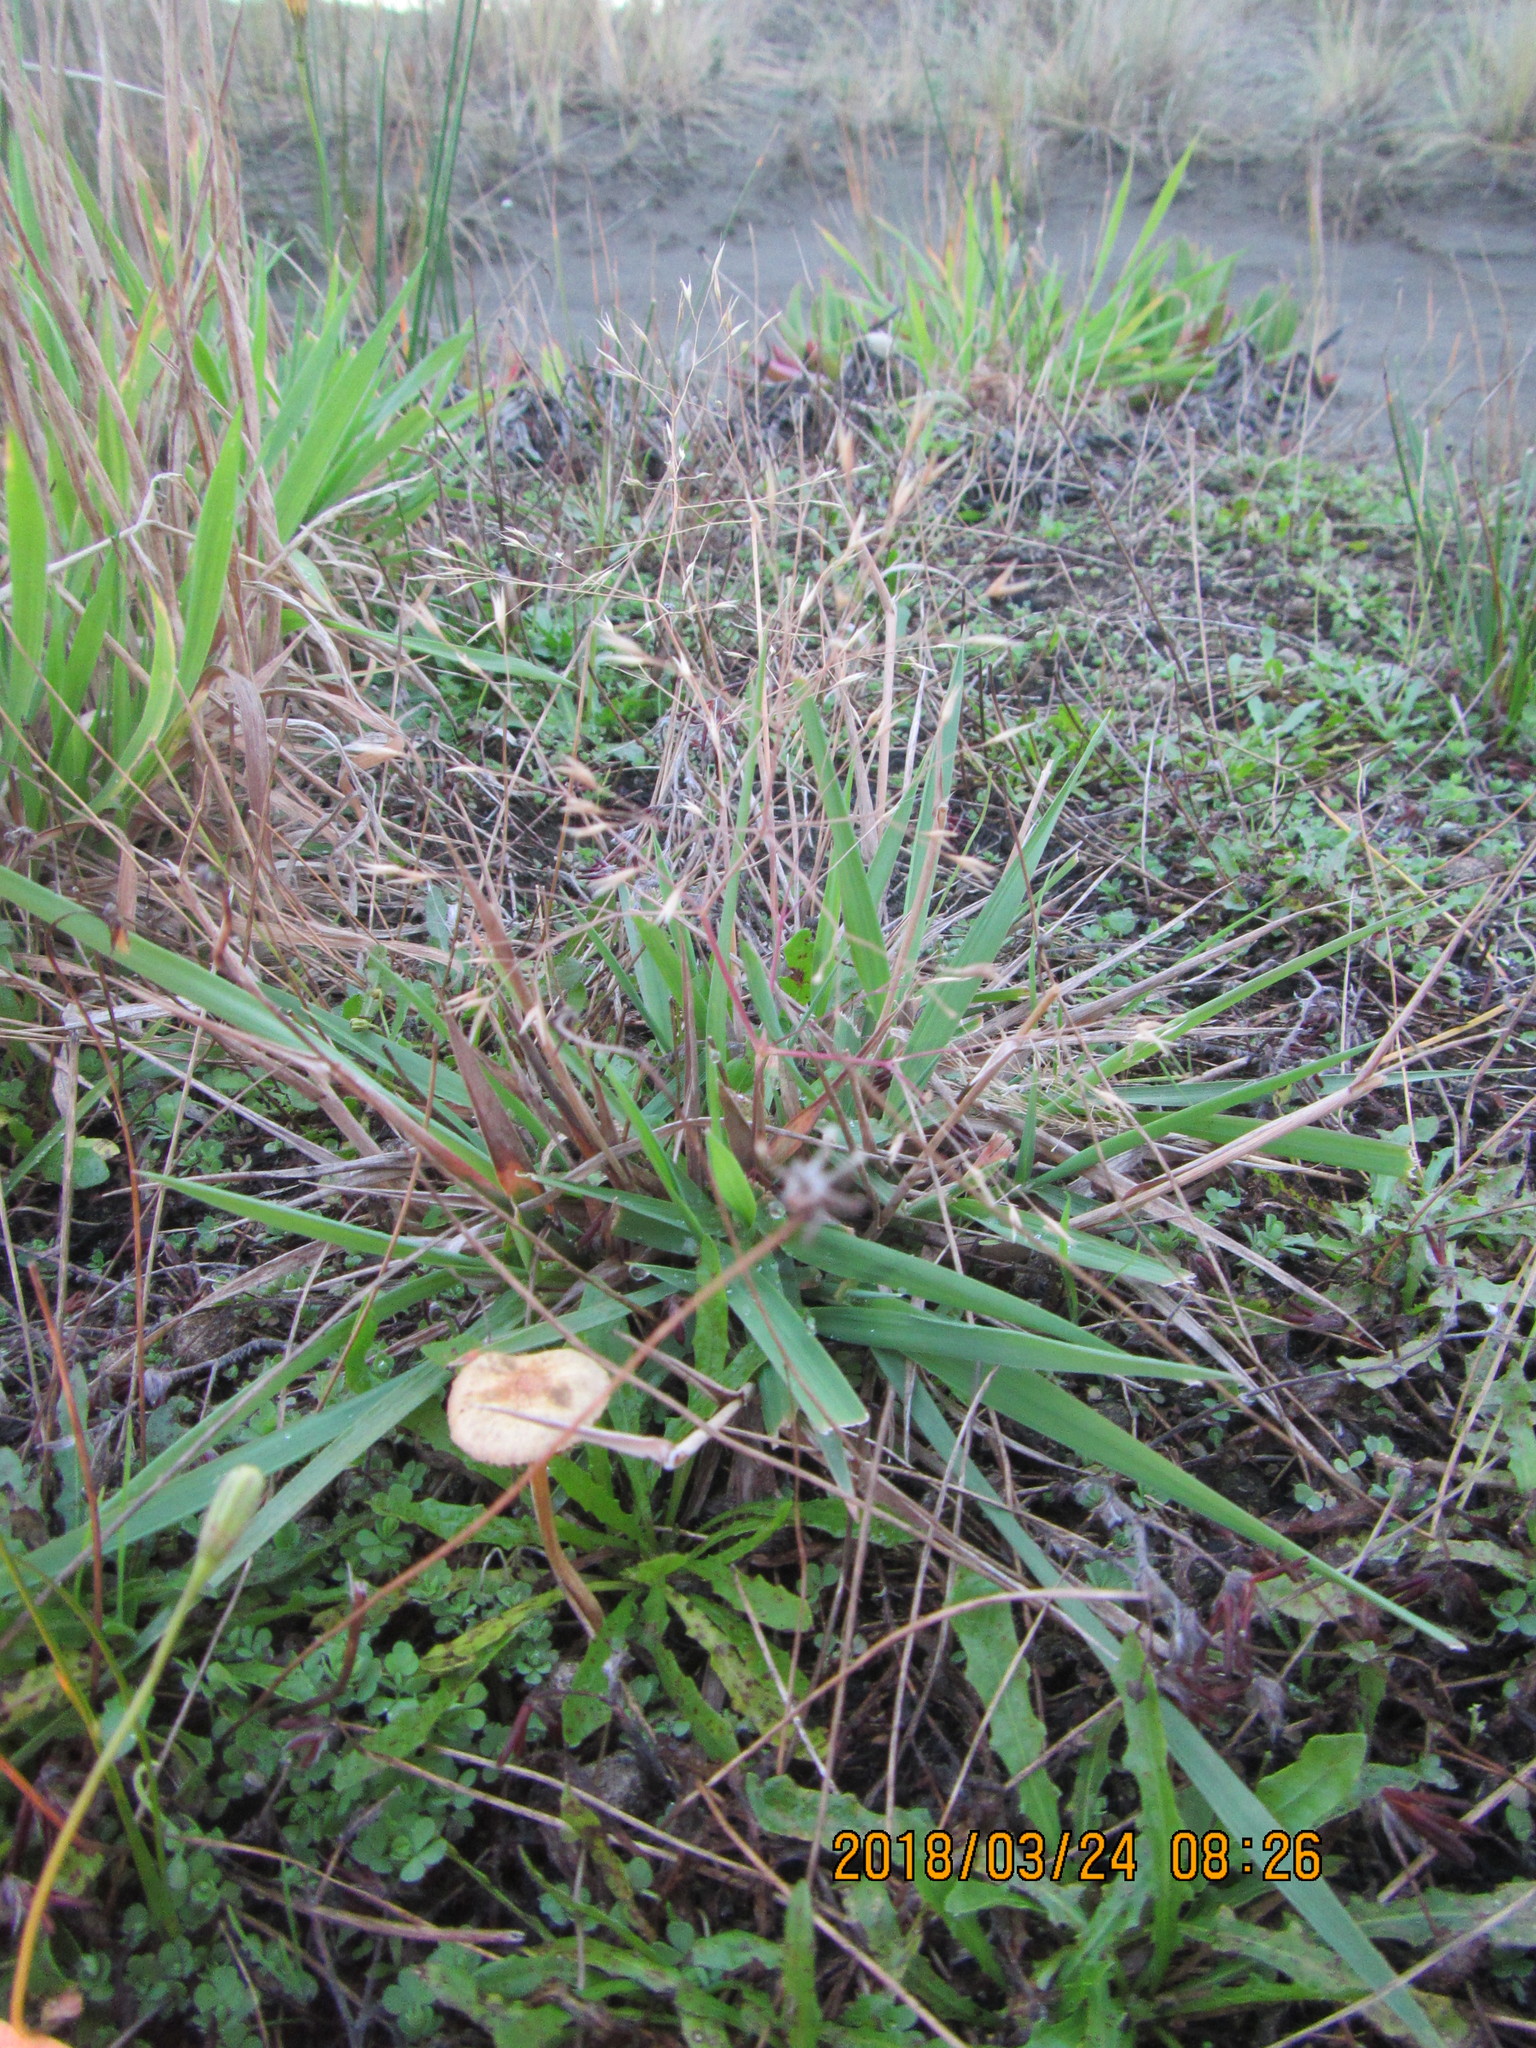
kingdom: Plantae
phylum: Tracheophyta
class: Liliopsida
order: Poales
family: Poaceae
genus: Lachnagrostis
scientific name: Lachnagrostis billardierei
